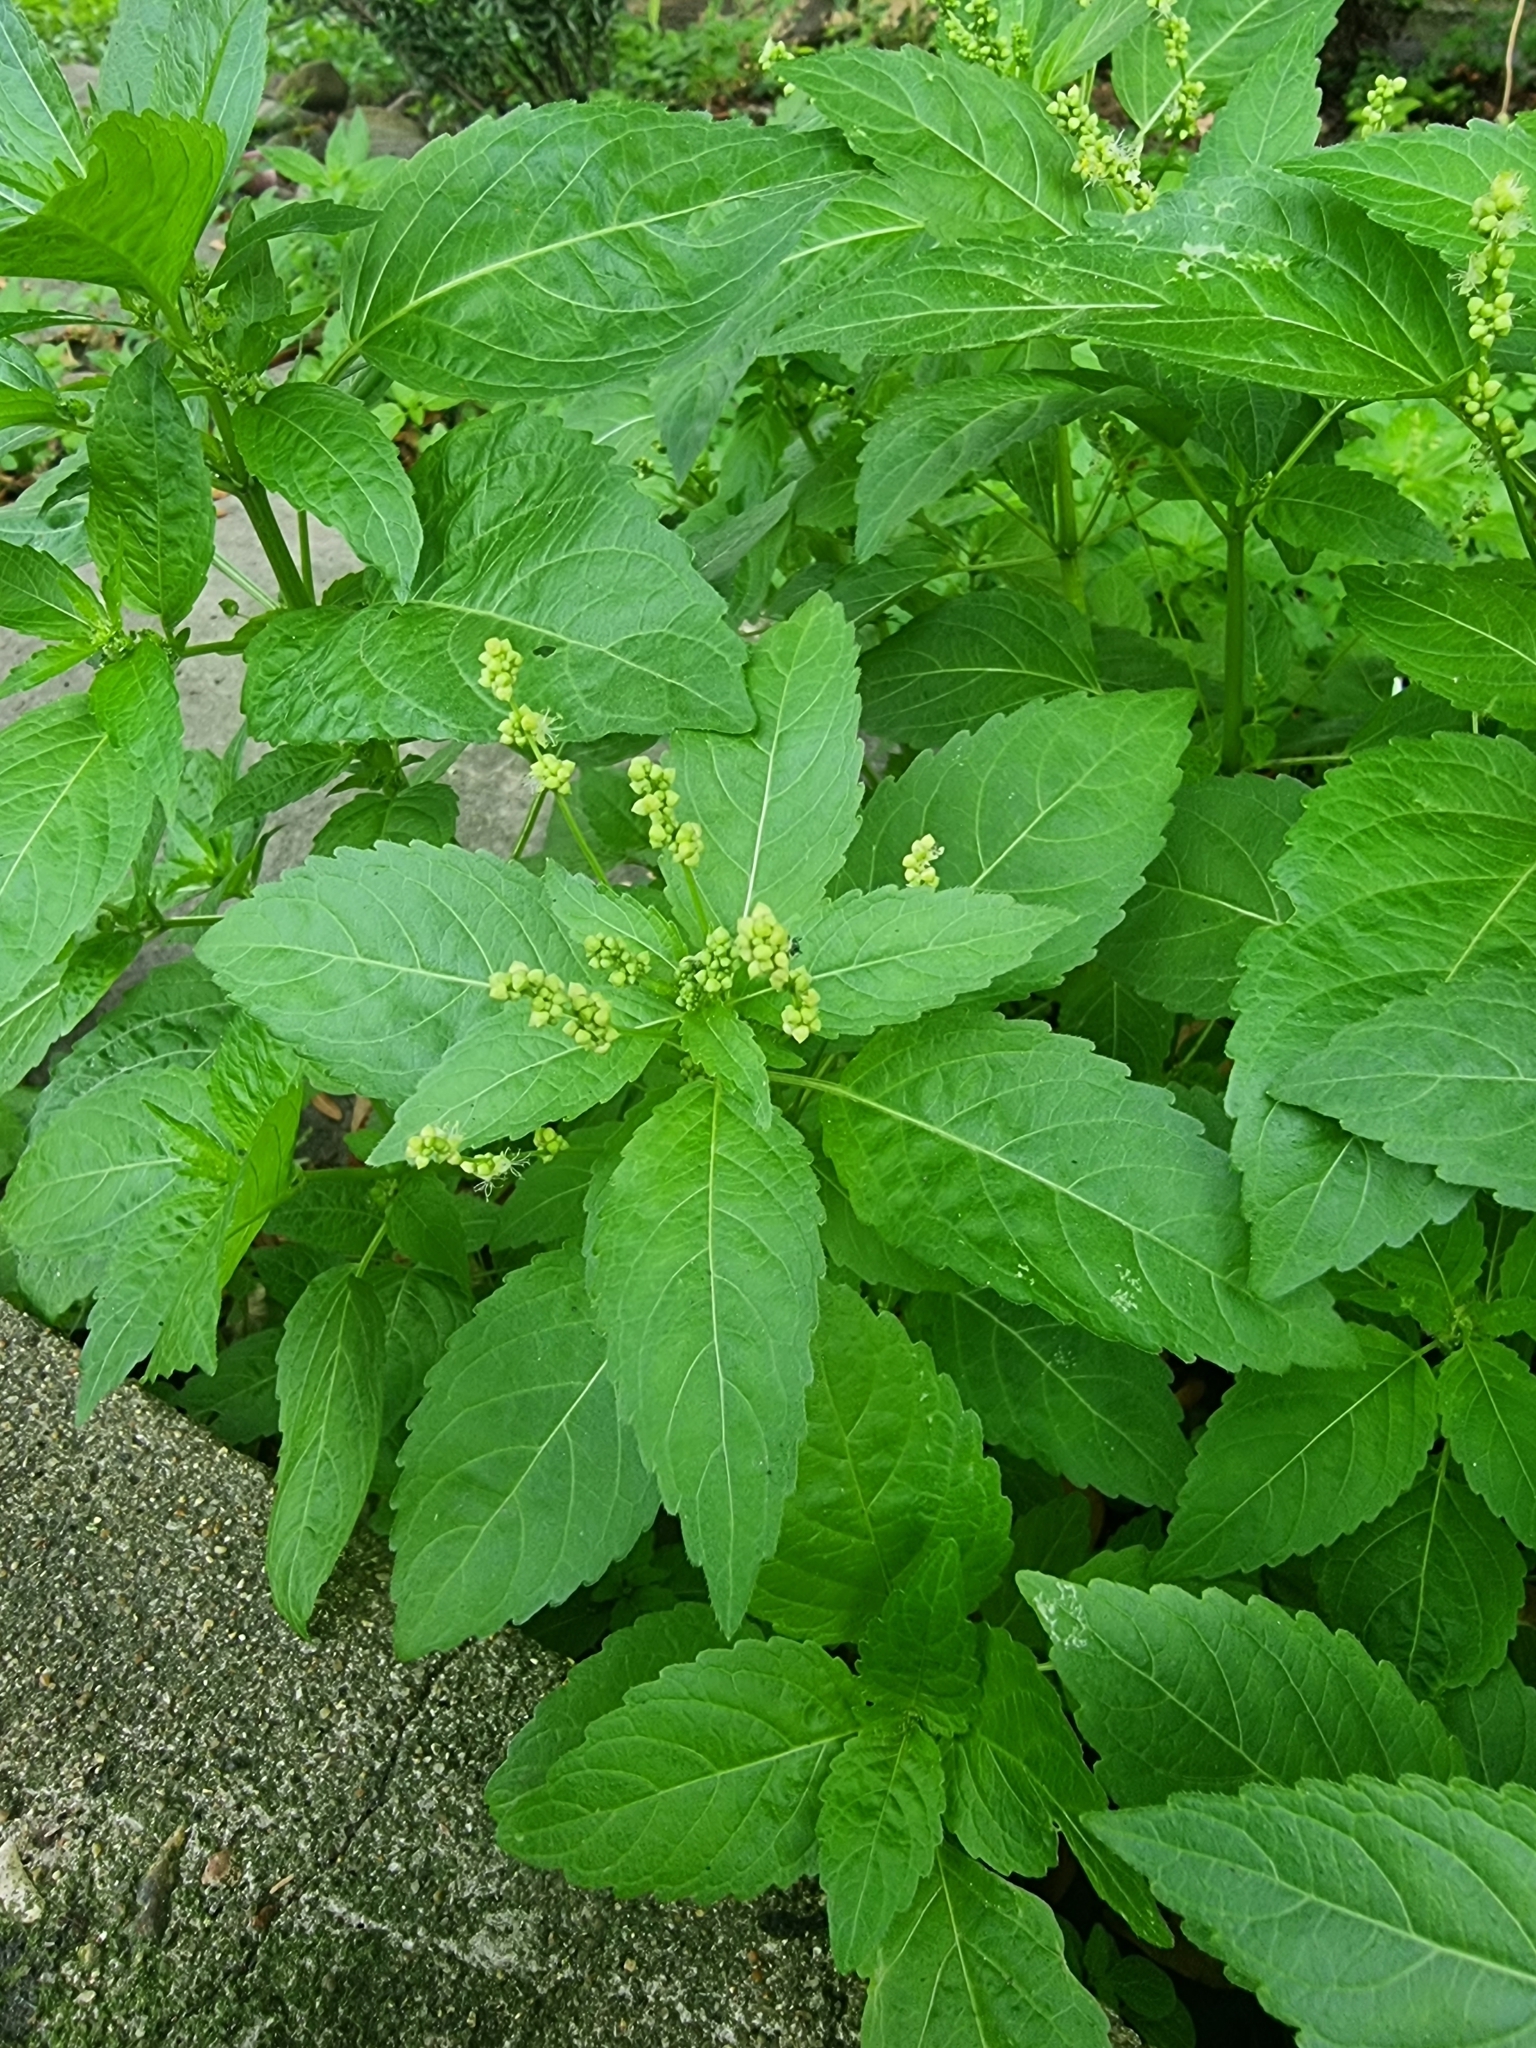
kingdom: Plantae
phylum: Tracheophyta
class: Magnoliopsida
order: Malpighiales
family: Euphorbiaceae
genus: Mercurialis
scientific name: Mercurialis annua
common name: Annual mercury
